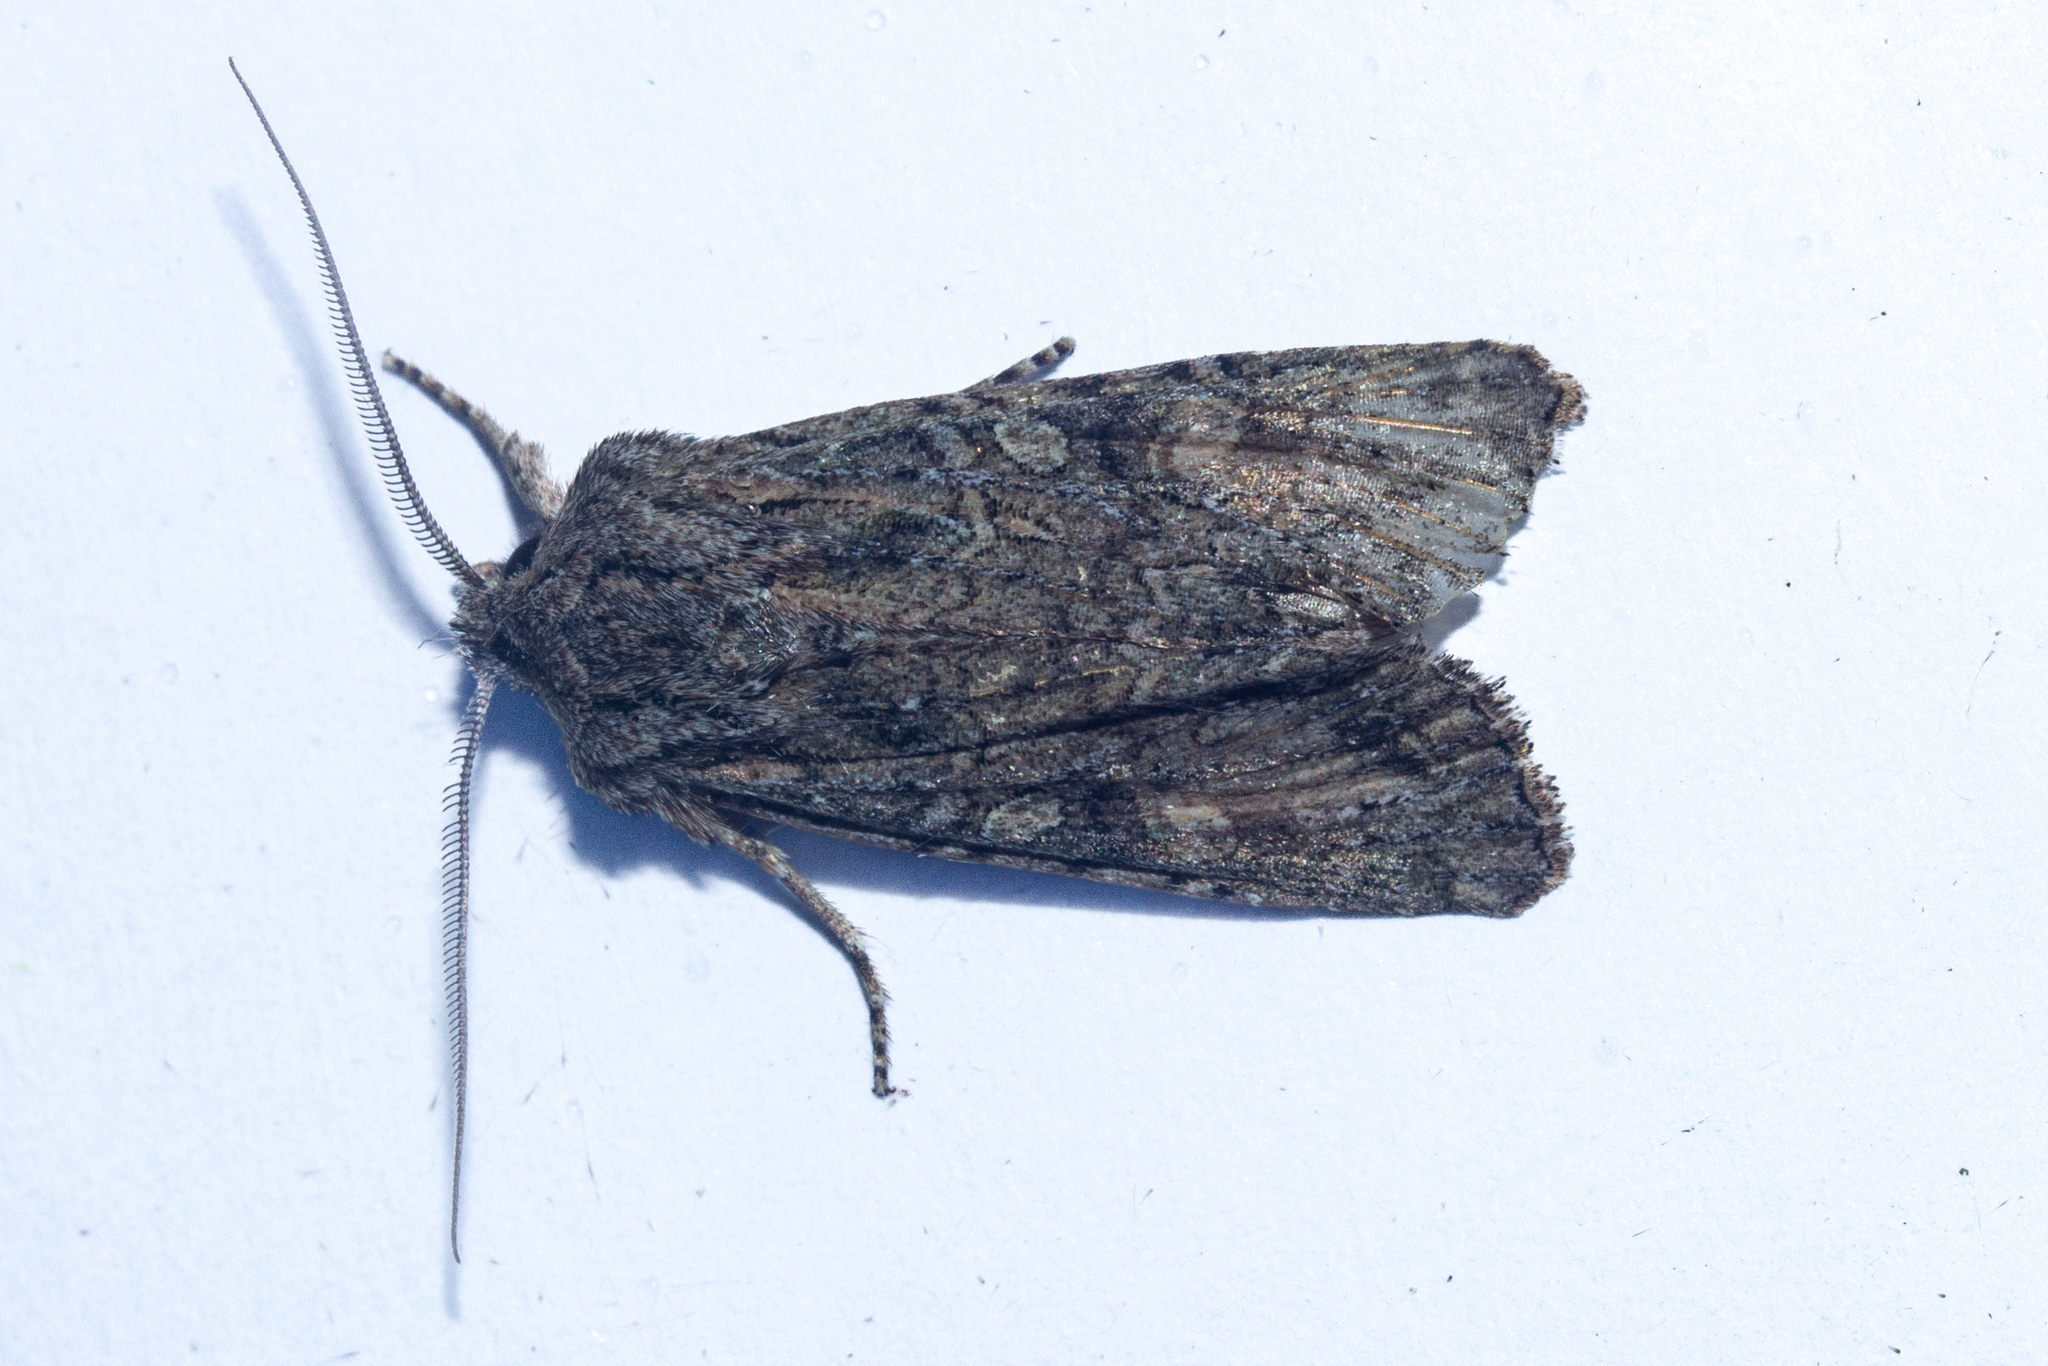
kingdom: Animalia
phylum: Arthropoda
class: Insecta
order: Lepidoptera
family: Noctuidae
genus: Ichneutica
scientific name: Ichneutica mutans
